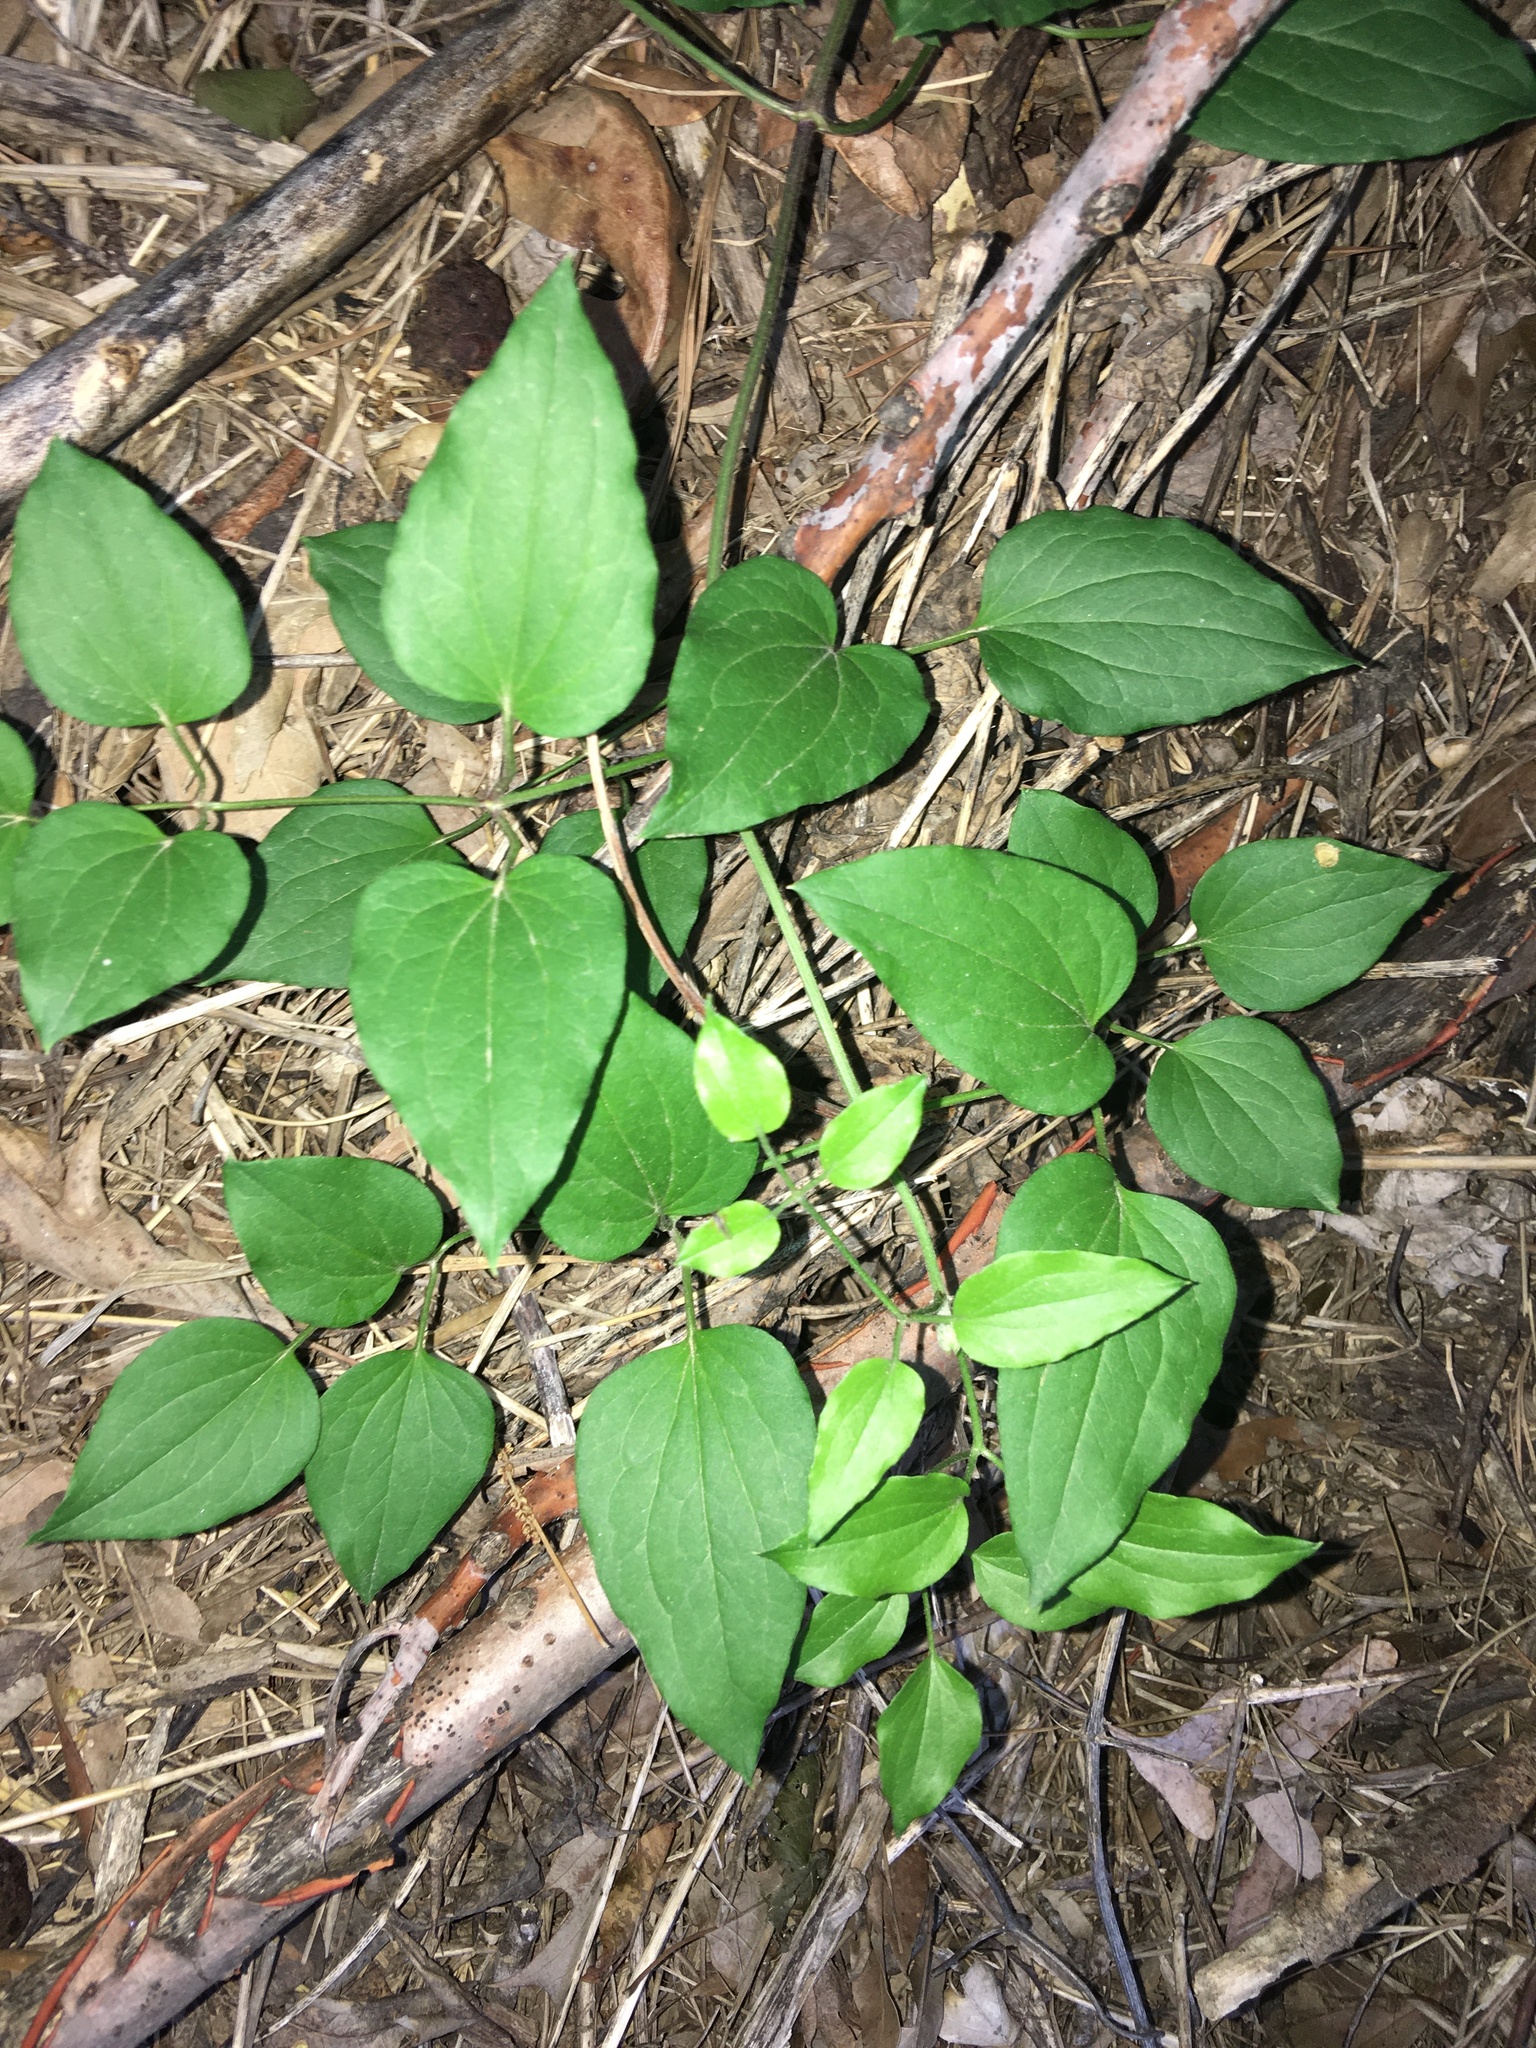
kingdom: Plantae
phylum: Tracheophyta
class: Magnoliopsida
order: Ranunculales
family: Ranunculaceae
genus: Clematis
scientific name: Clematis terniflora
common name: Sweet autumn clematis
